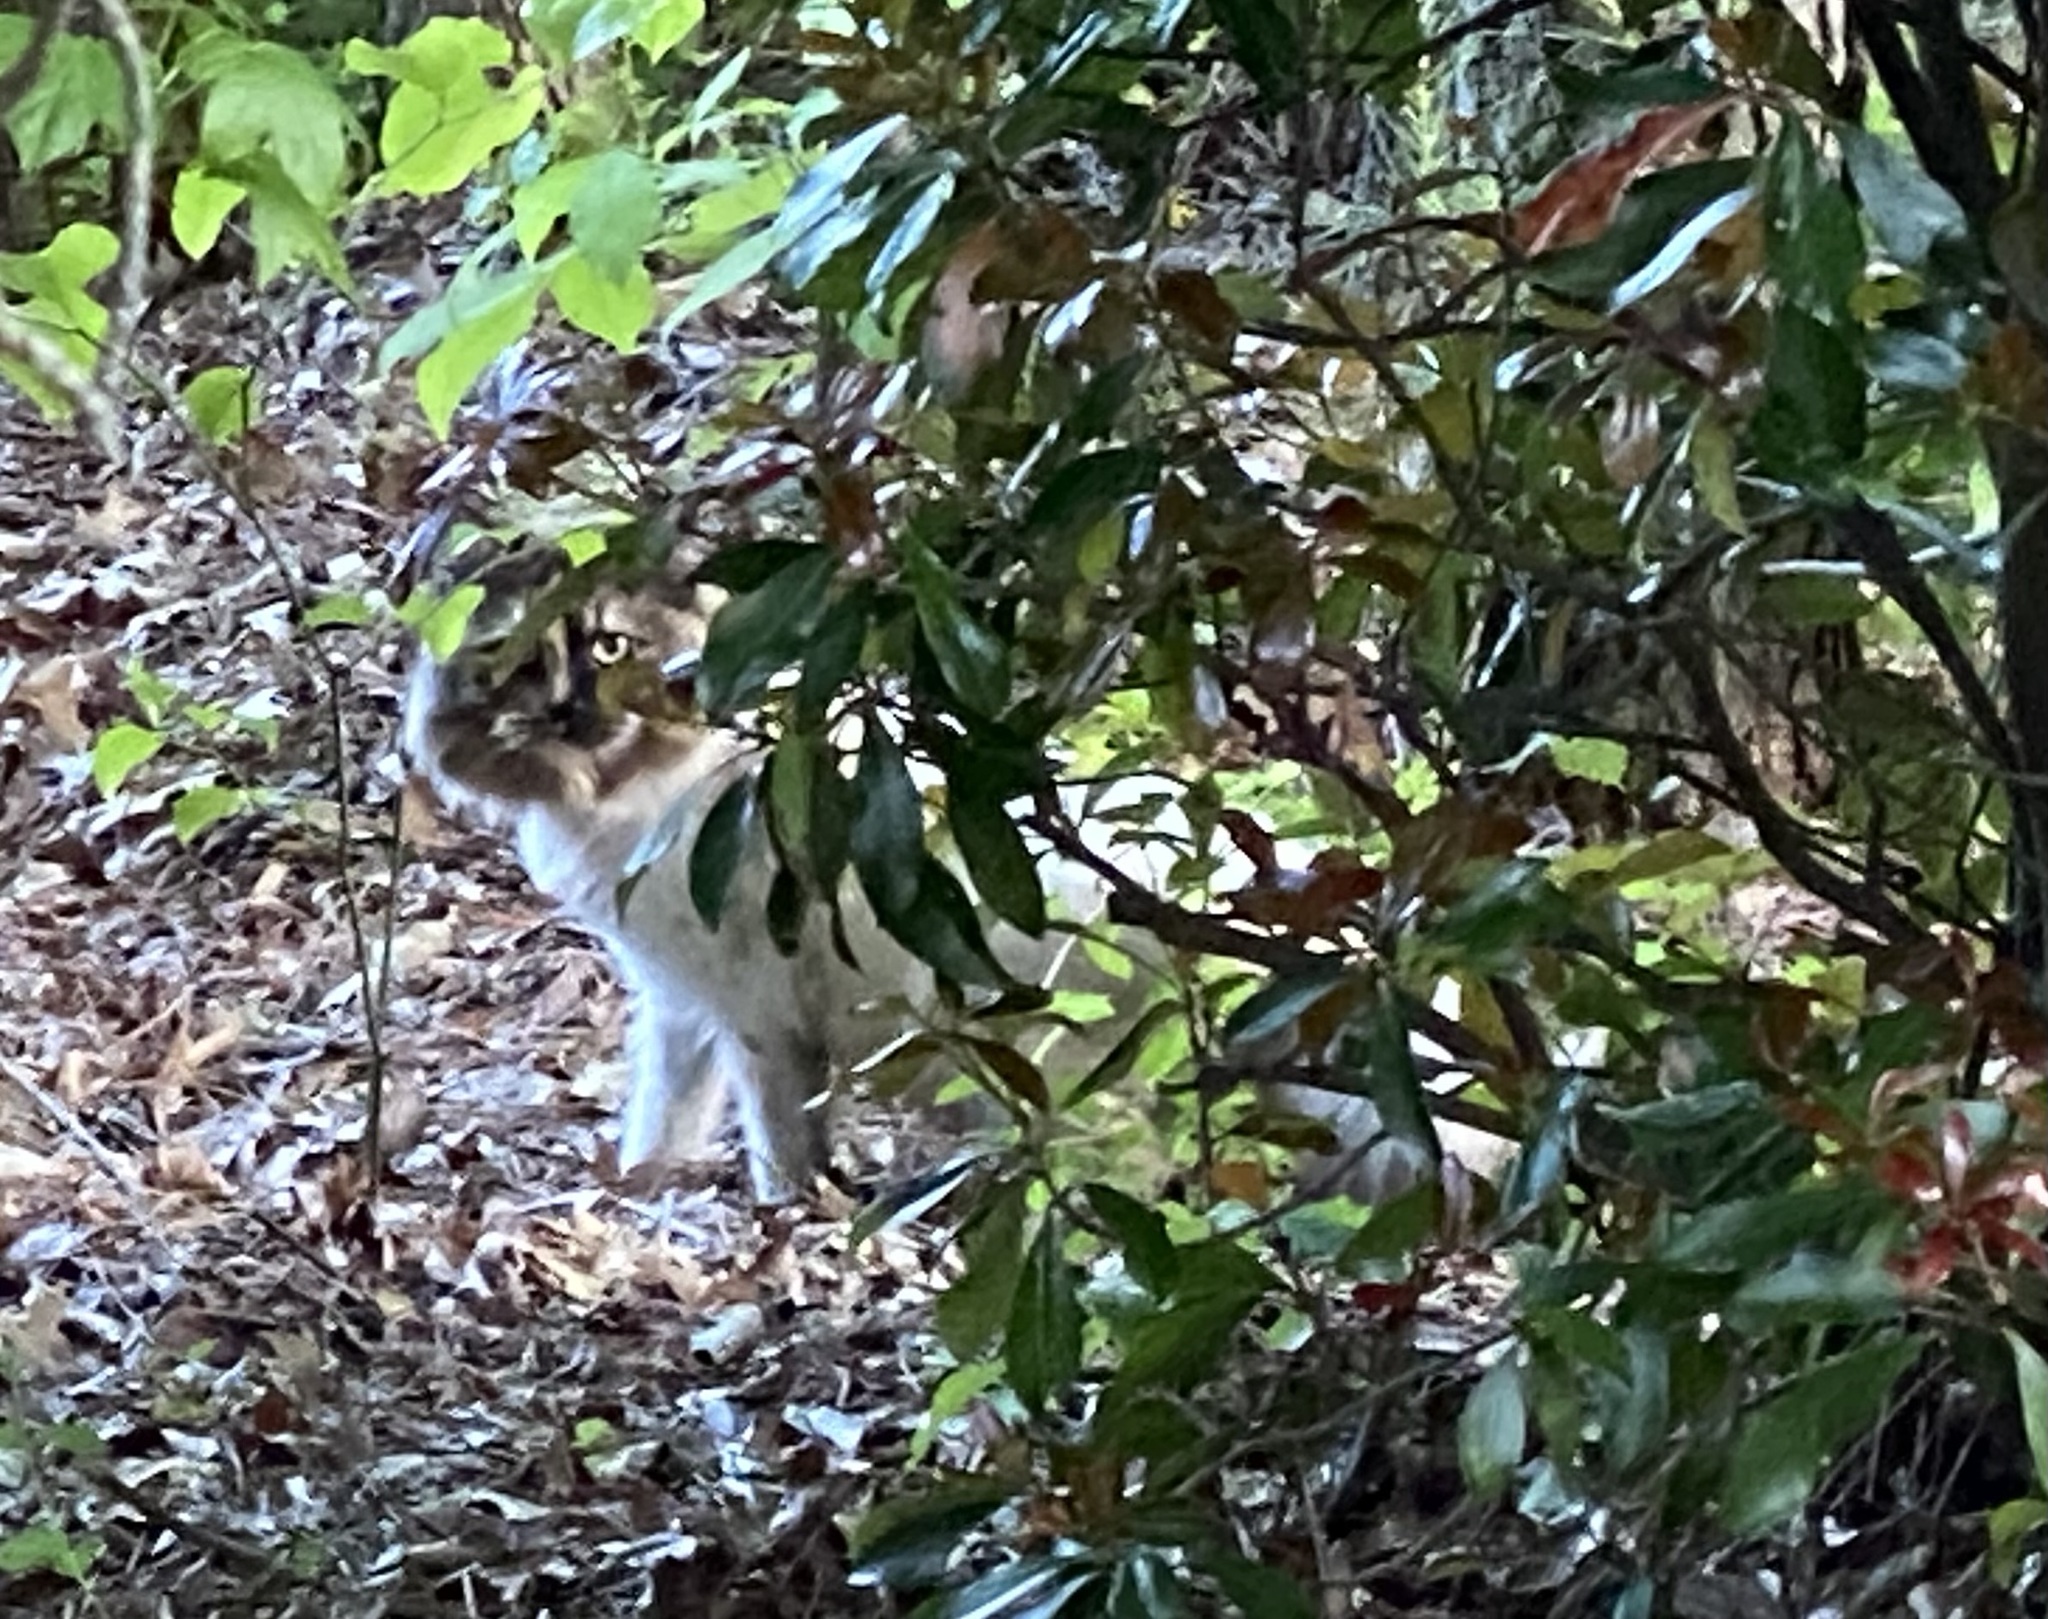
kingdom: Animalia
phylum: Chordata
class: Mammalia
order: Carnivora
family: Felidae
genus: Felis
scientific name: Felis catus
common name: Domestic cat
